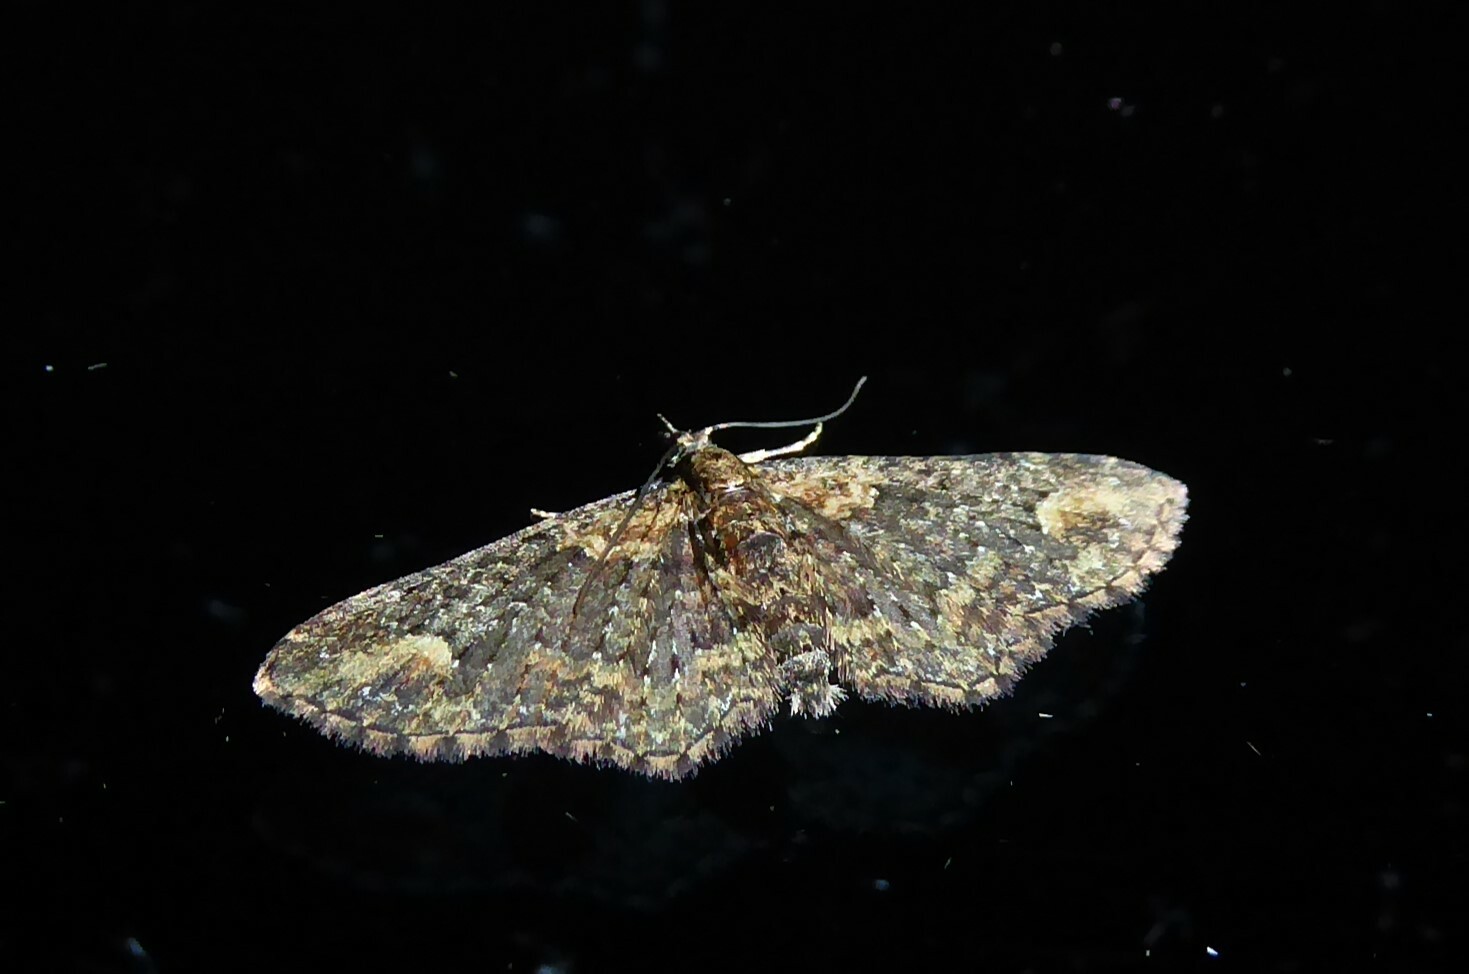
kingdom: Animalia
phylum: Arthropoda
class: Insecta
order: Lepidoptera
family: Geometridae
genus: Pasiphilodes
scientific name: Pasiphilodes testulata
